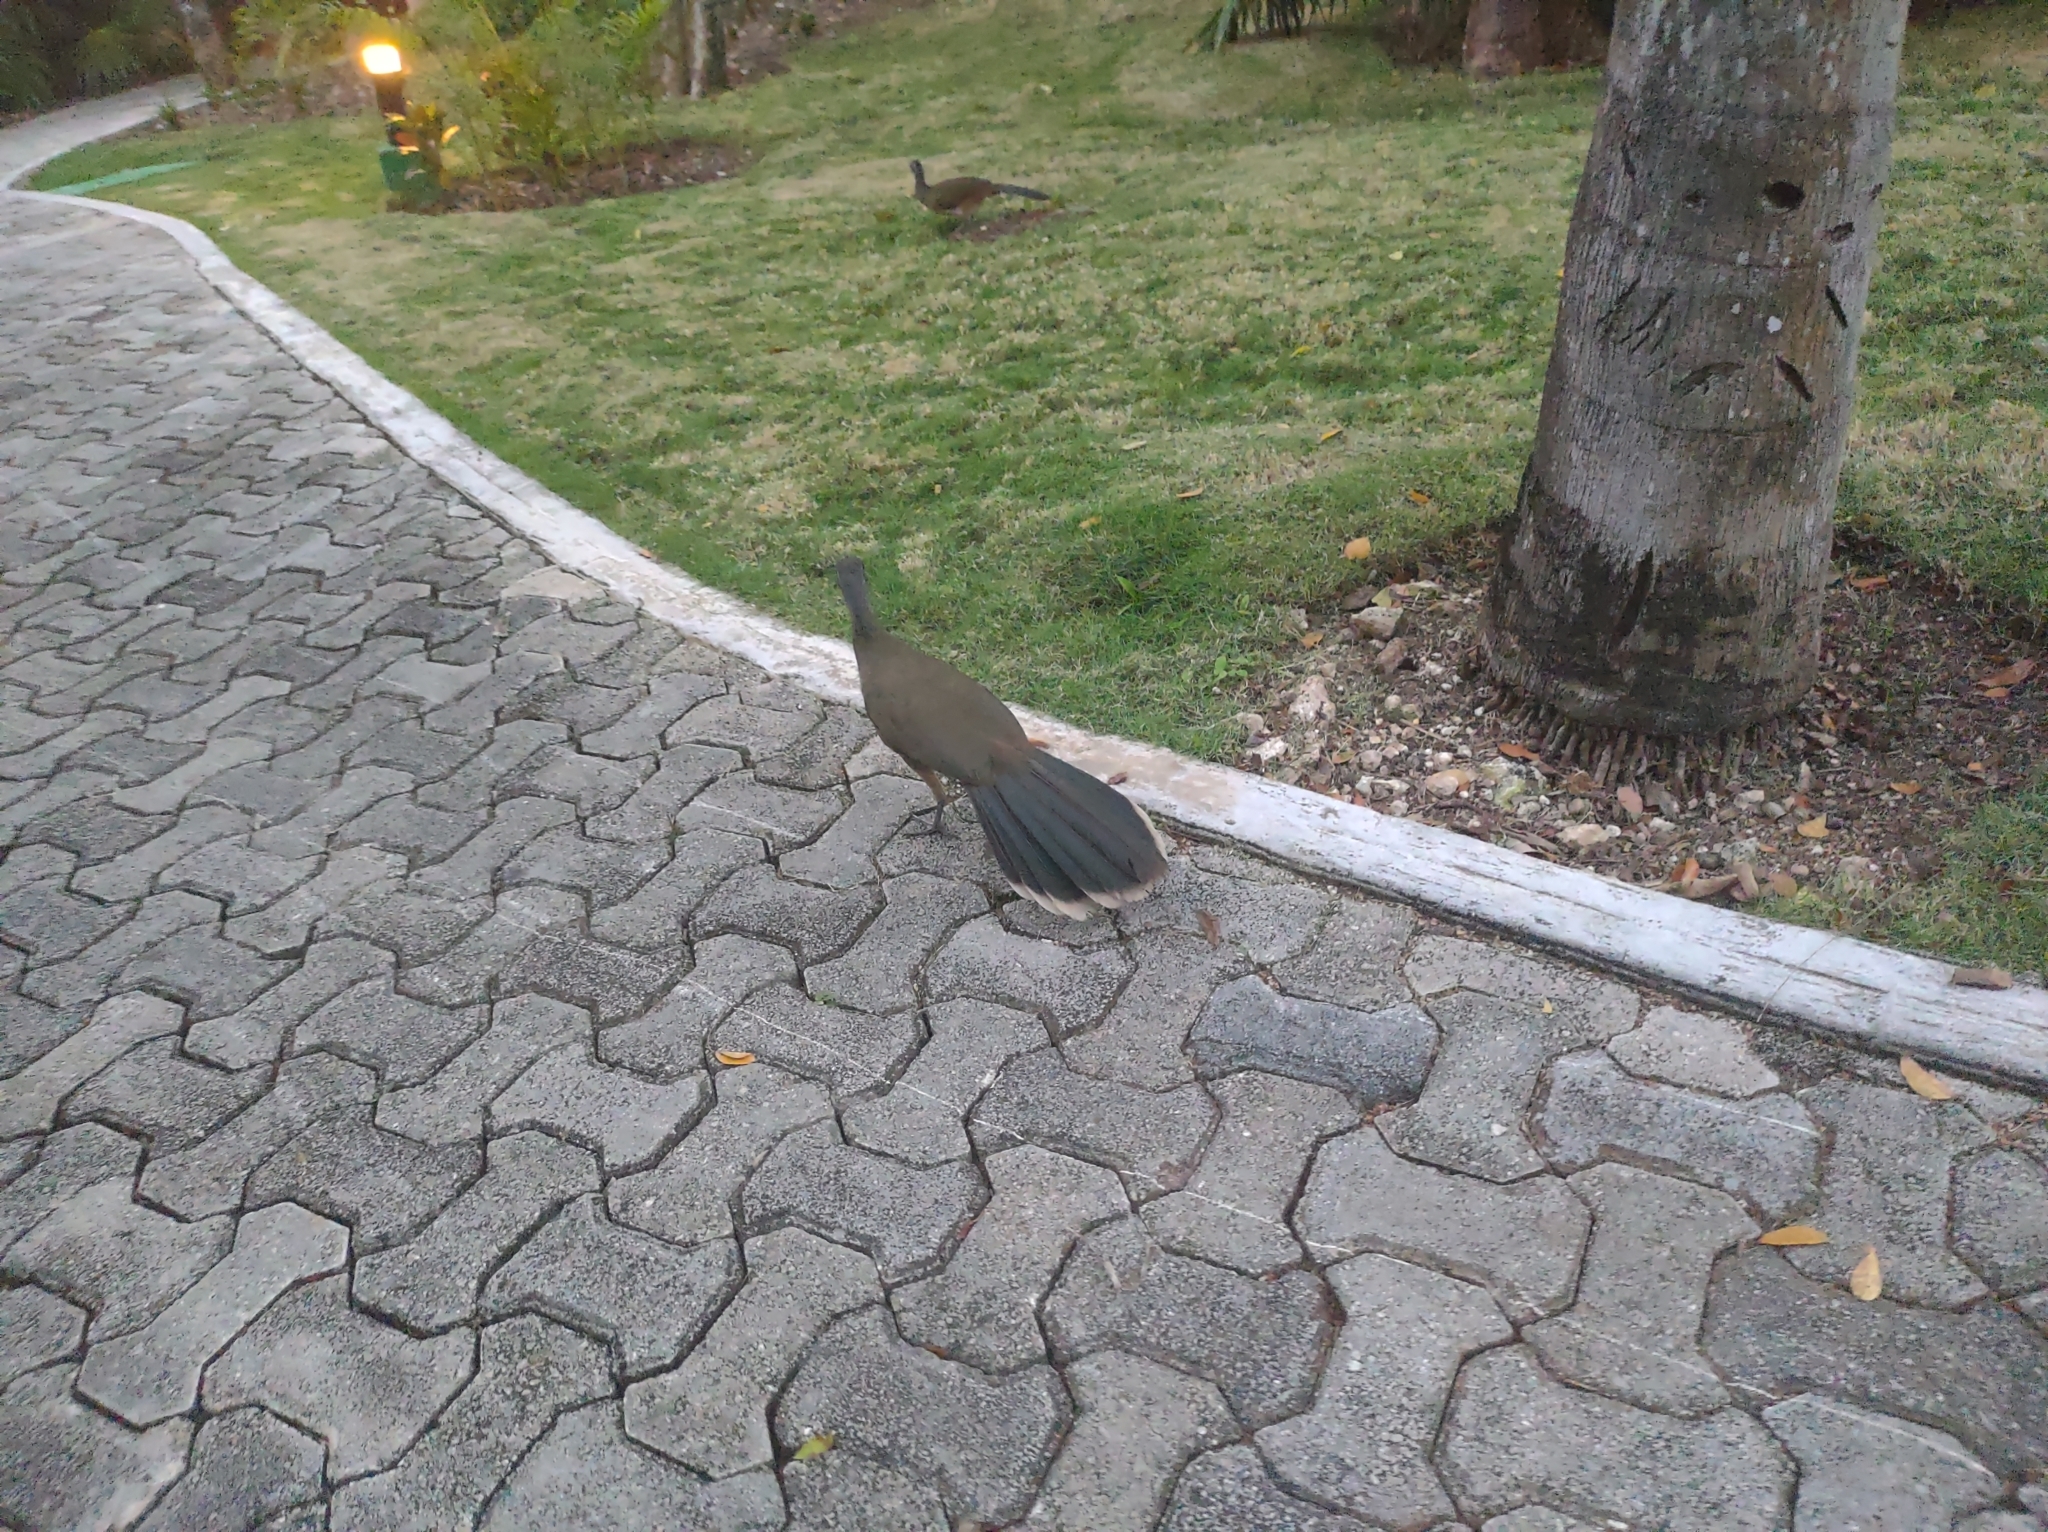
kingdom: Animalia
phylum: Chordata
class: Aves
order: Galliformes
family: Cracidae
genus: Ortalis
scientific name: Ortalis vetula
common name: Plain chachalaca
